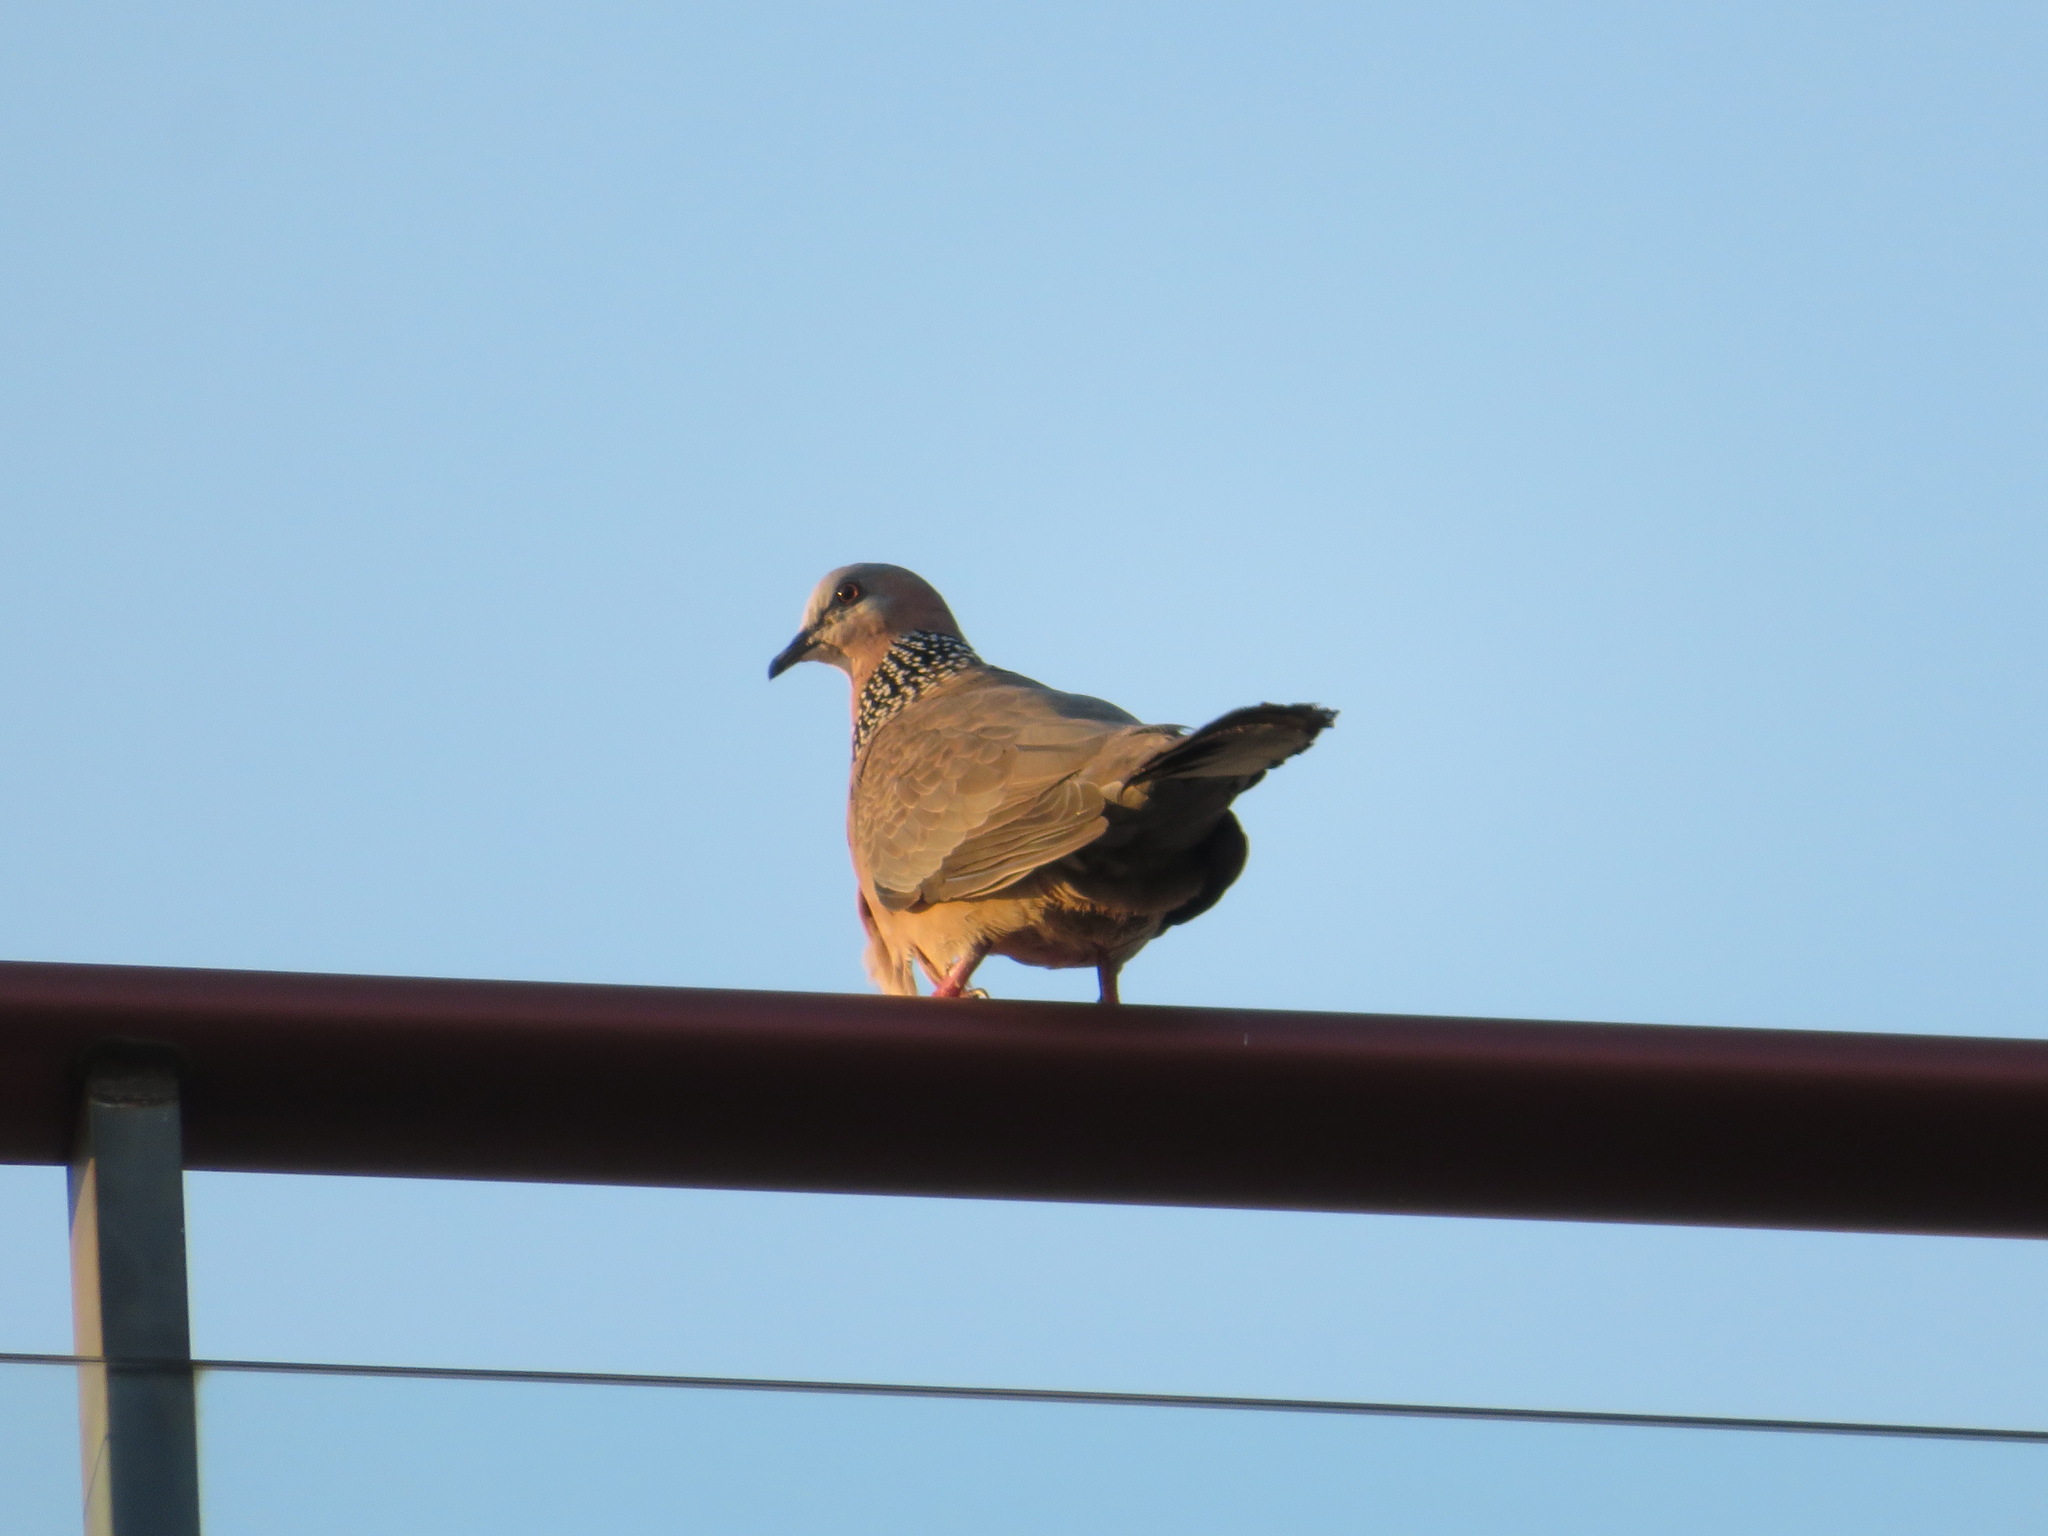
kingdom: Animalia
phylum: Chordata
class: Aves
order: Columbiformes
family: Columbidae
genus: Spilopelia
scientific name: Spilopelia chinensis
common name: Spotted dove
